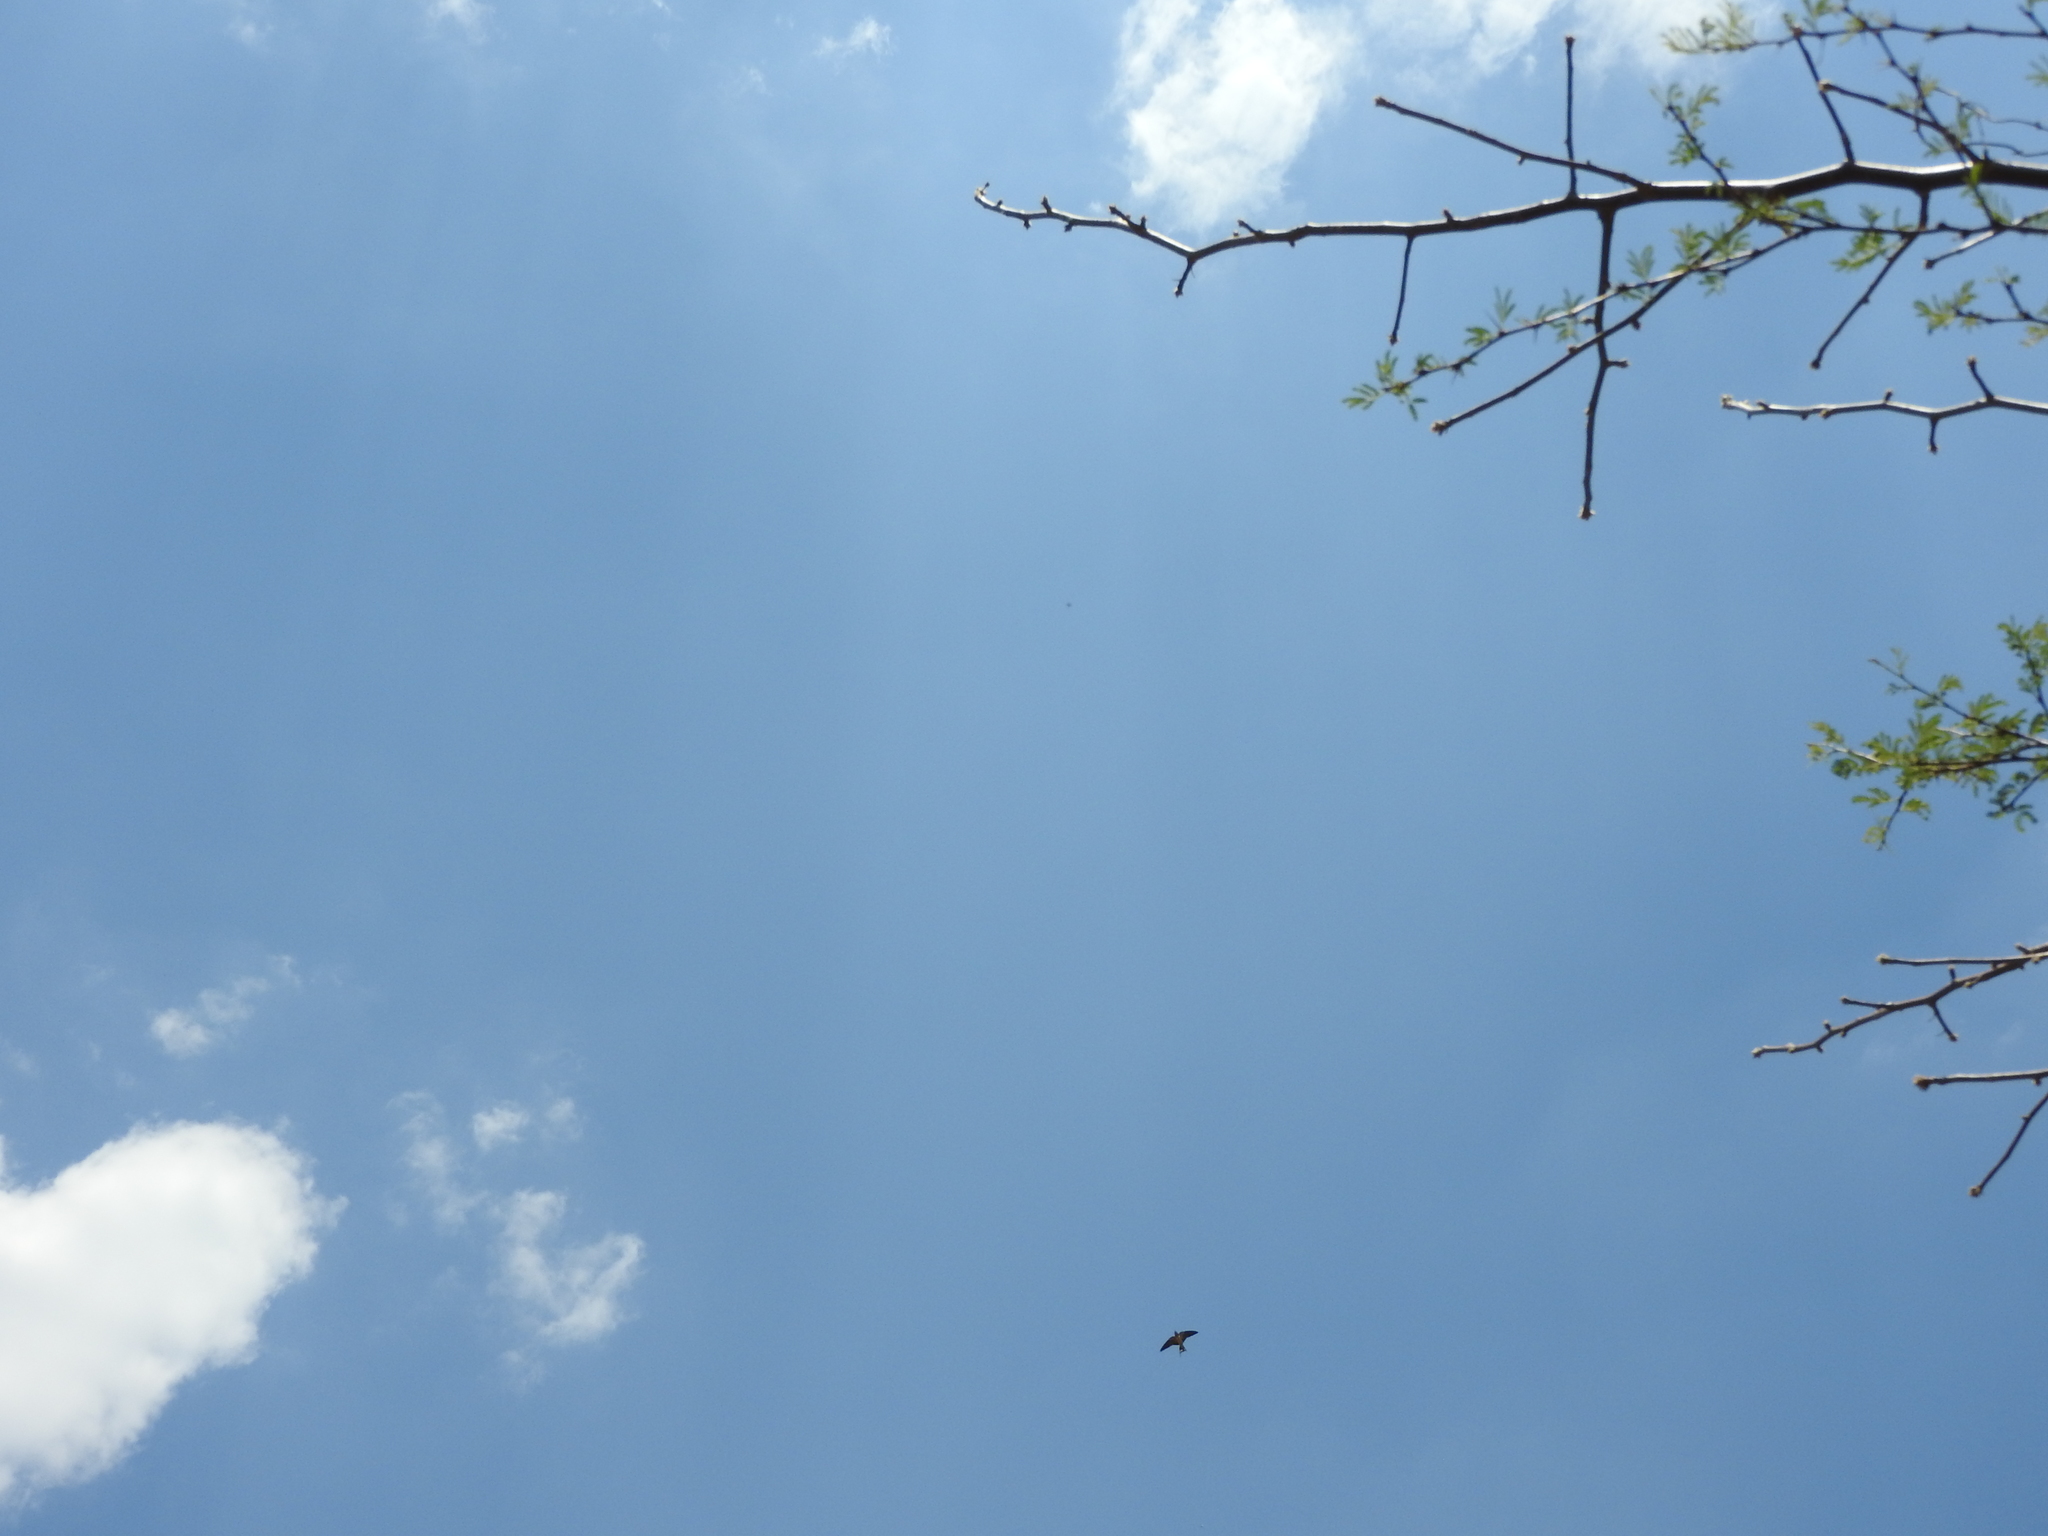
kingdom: Animalia
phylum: Chordata
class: Aves
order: Passeriformes
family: Hirundinidae
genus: Hirundo
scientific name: Hirundo rustica
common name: Barn swallow
